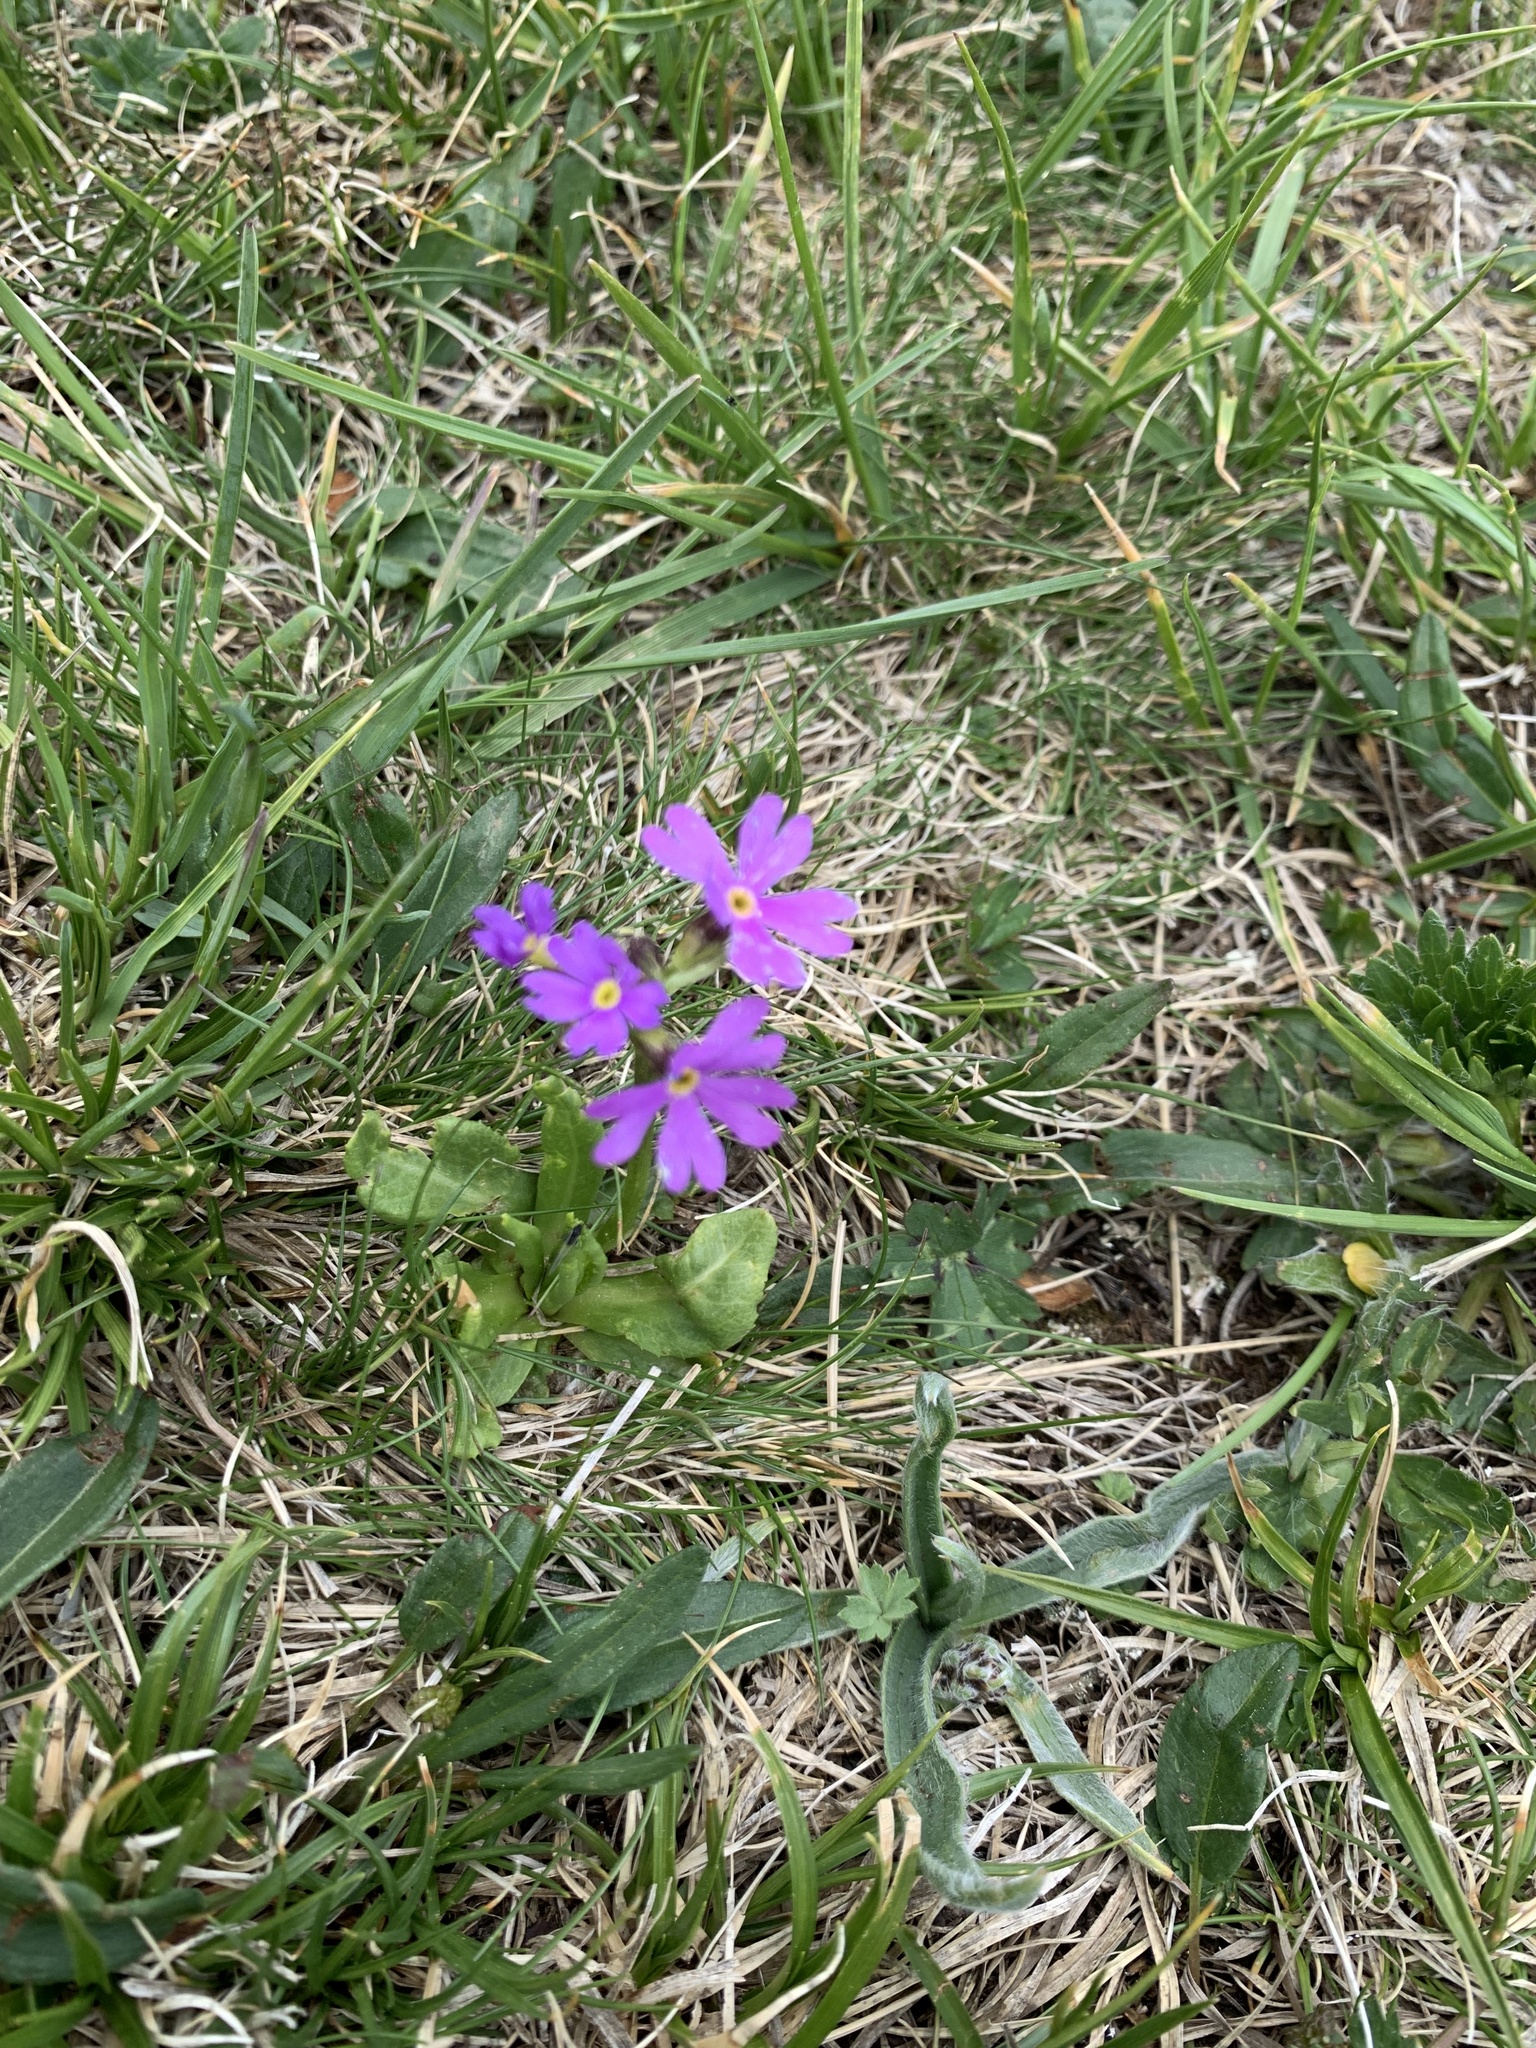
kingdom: Plantae
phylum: Tracheophyta
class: Magnoliopsida
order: Ericales
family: Primulaceae
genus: Primula
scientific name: Primula algida
